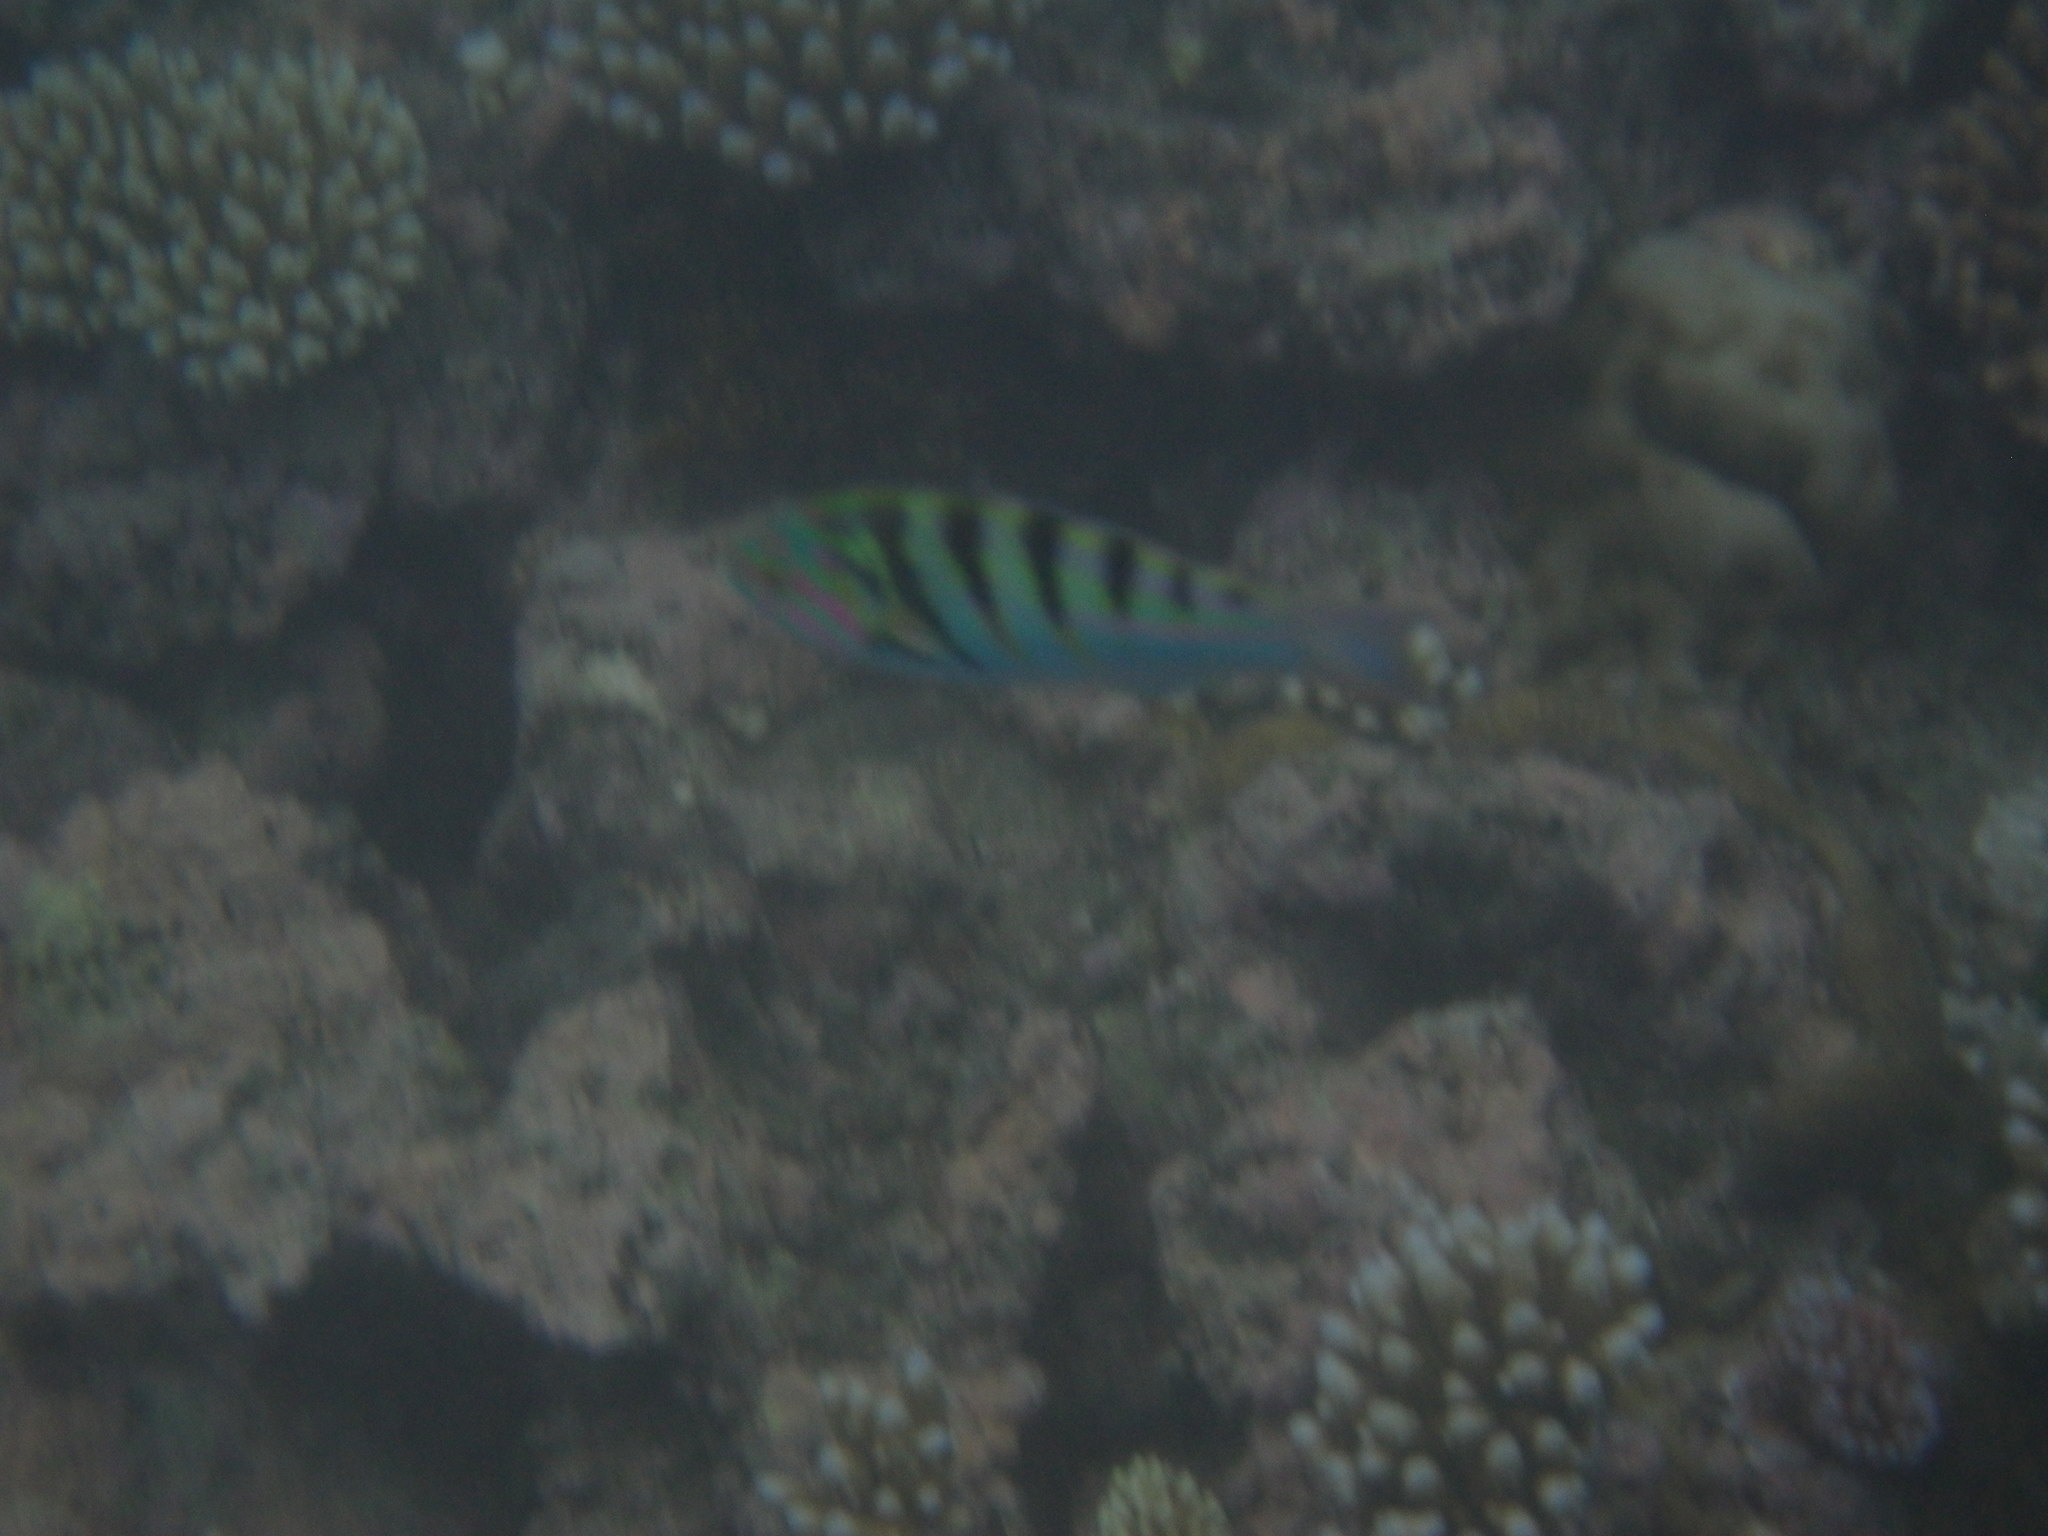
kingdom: Animalia
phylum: Chordata
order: Perciformes
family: Labridae
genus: Thalassoma
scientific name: Thalassoma hardwicke
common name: Sixbar wrasse
